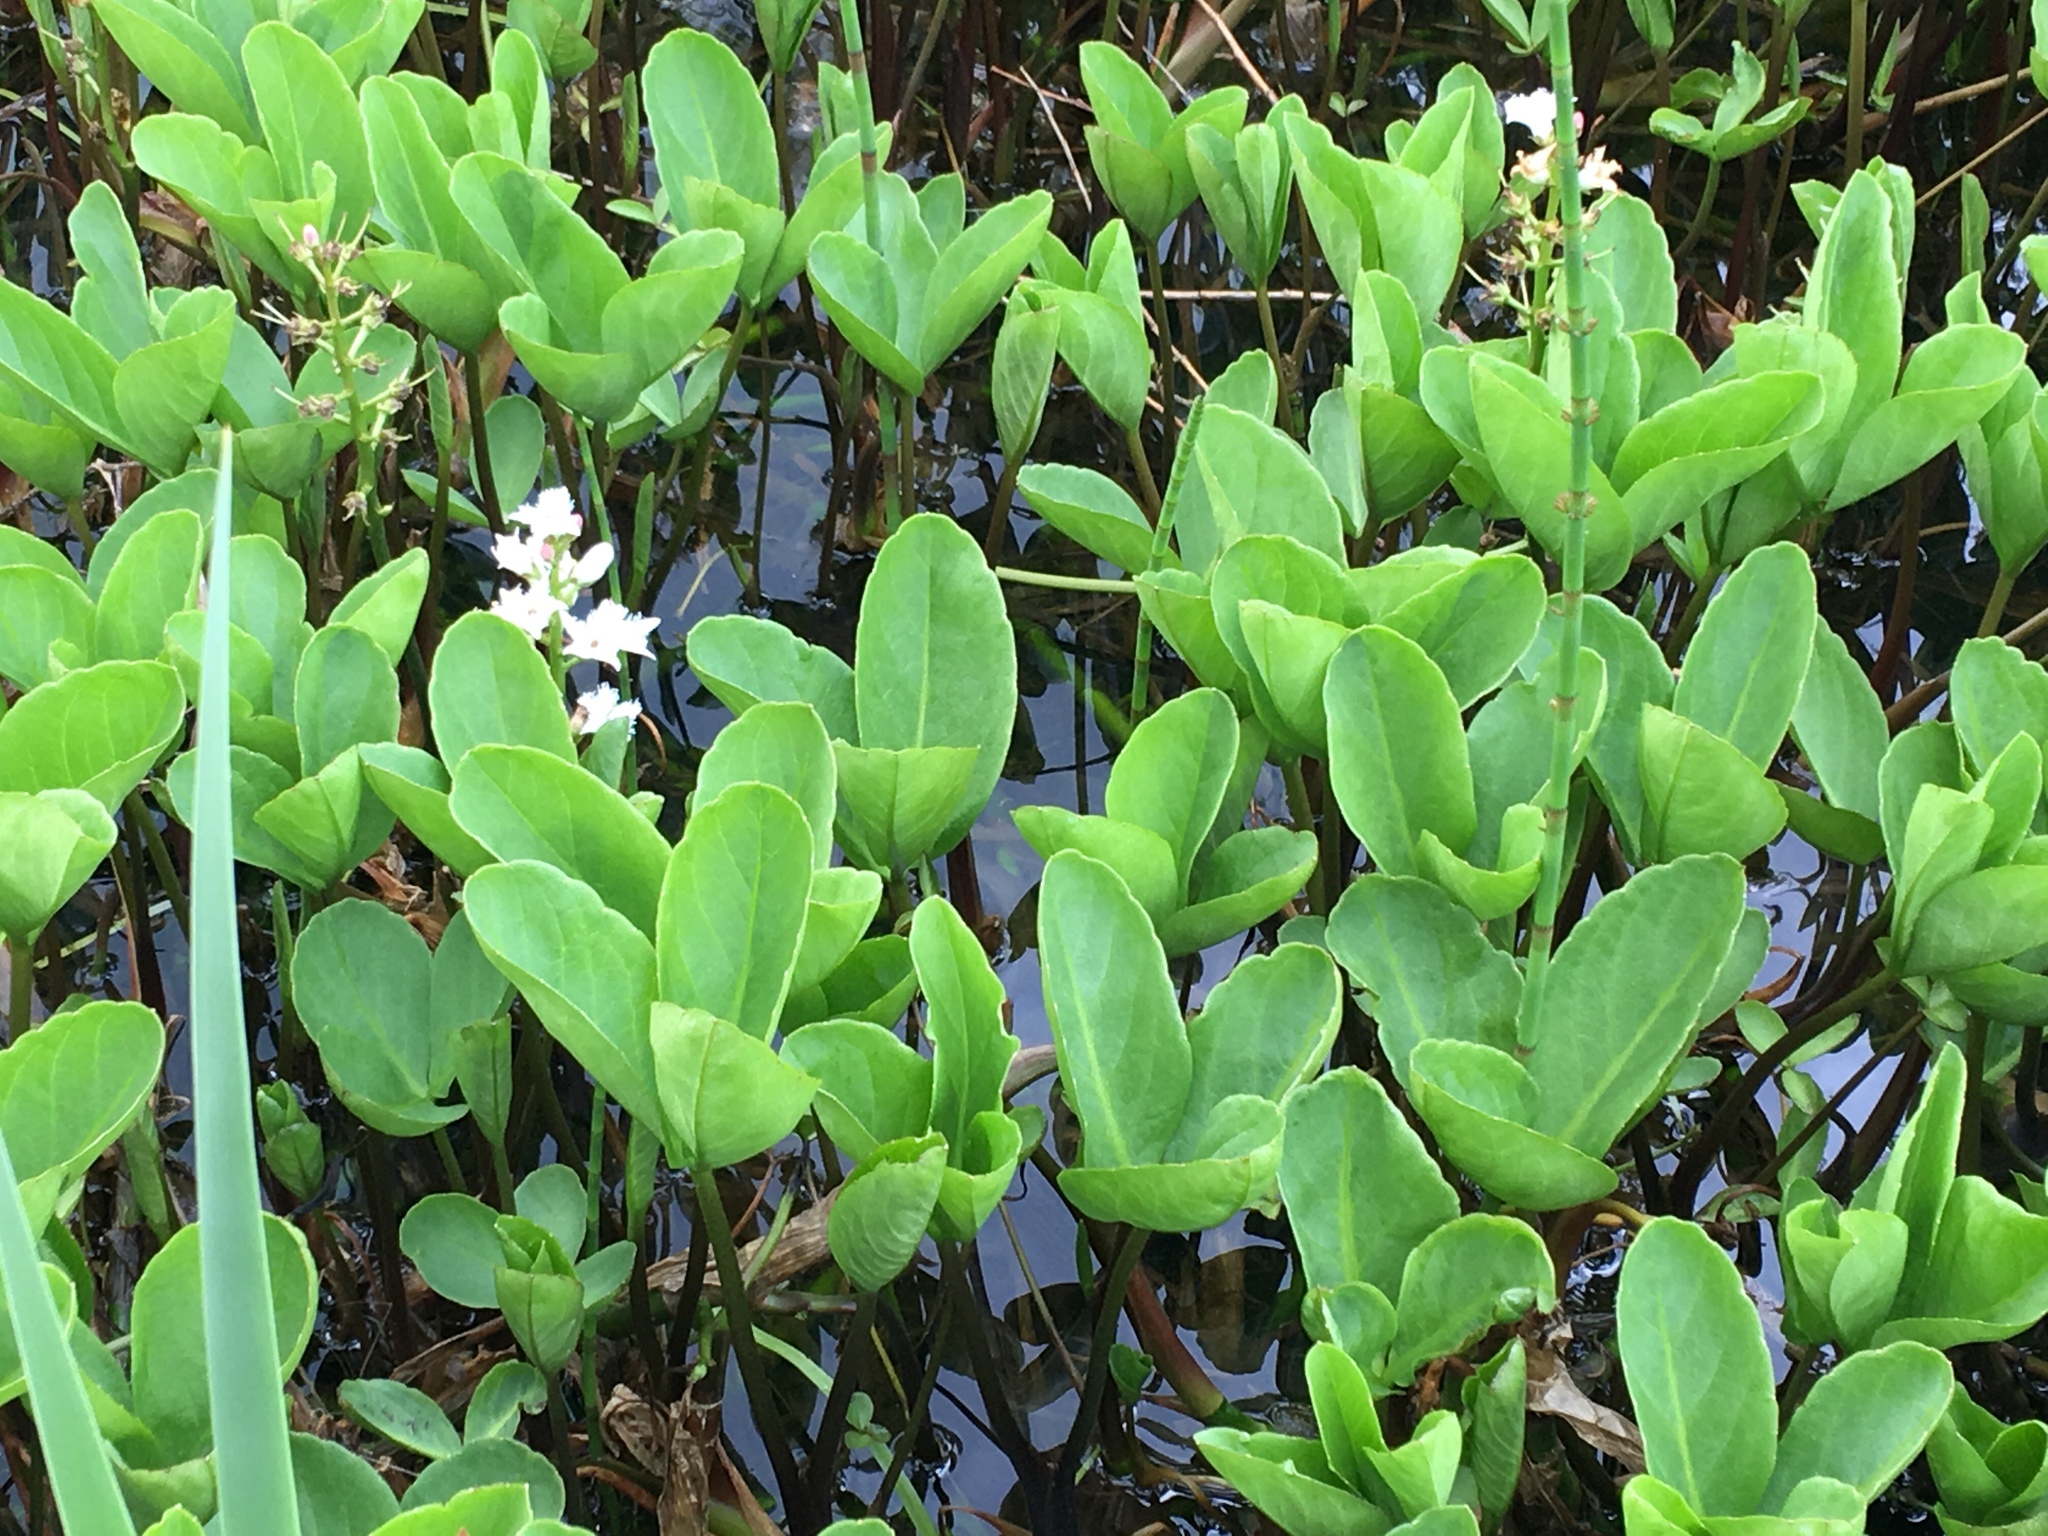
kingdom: Plantae
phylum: Tracheophyta
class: Magnoliopsida
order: Asterales
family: Menyanthaceae
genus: Menyanthes
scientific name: Menyanthes trifoliata
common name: Bogbean
